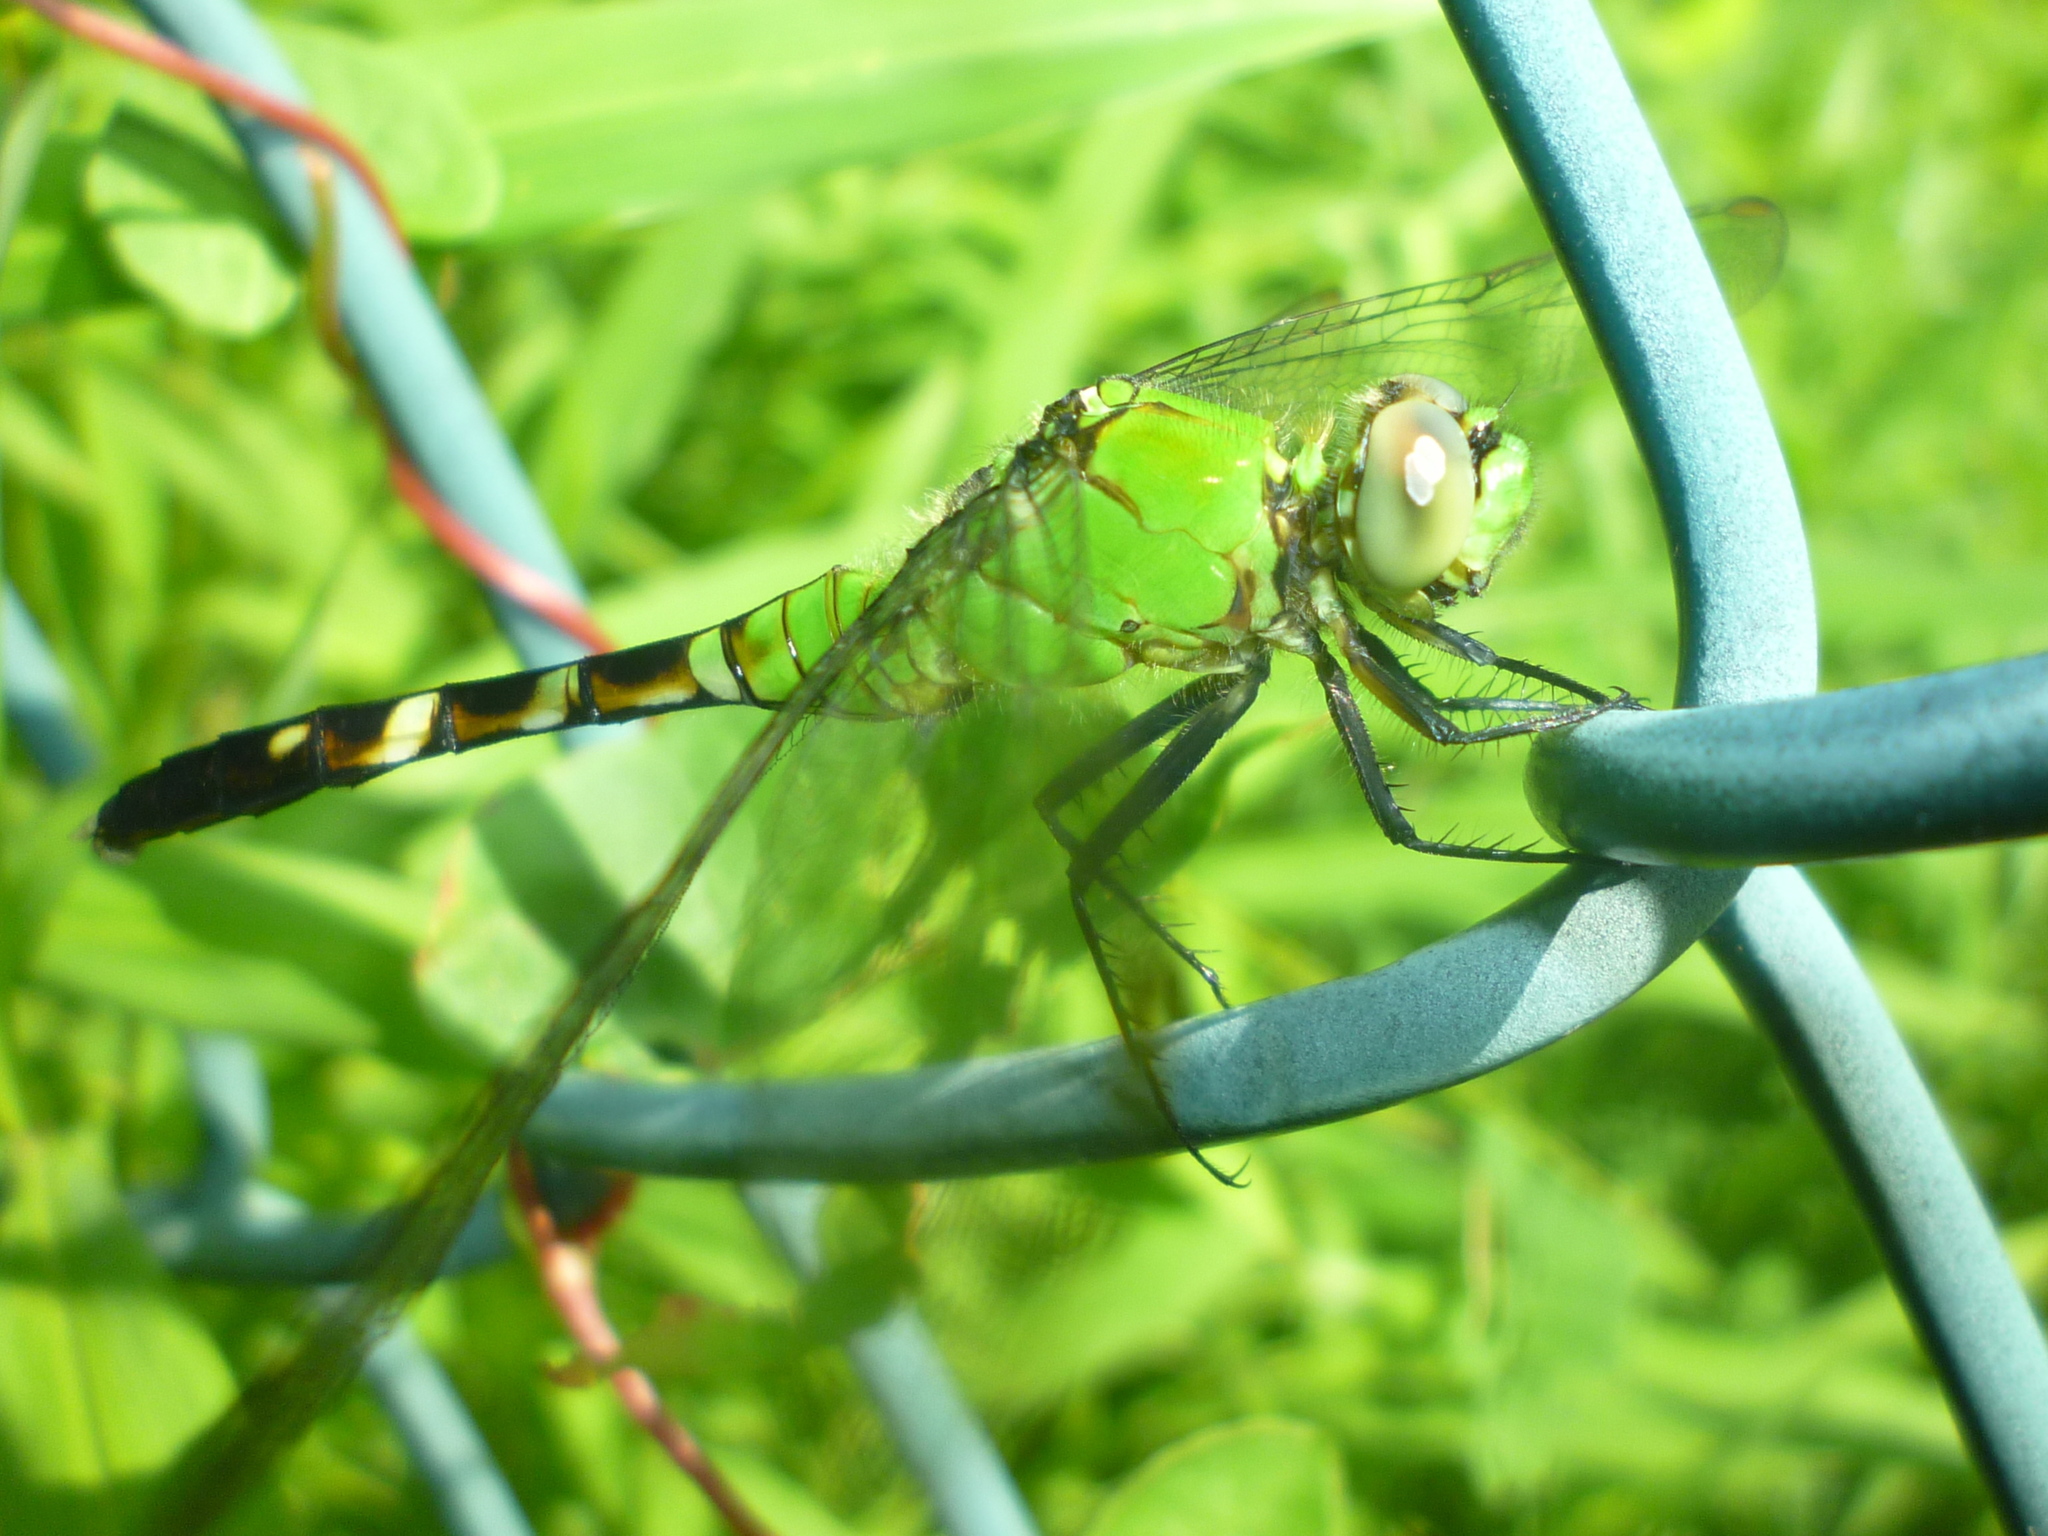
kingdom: Animalia
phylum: Arthropoda
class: Insecta
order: Odonata
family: Libellulidae
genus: Erythemis
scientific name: Erythemis simplicicollis
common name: Eastern pondhawk
